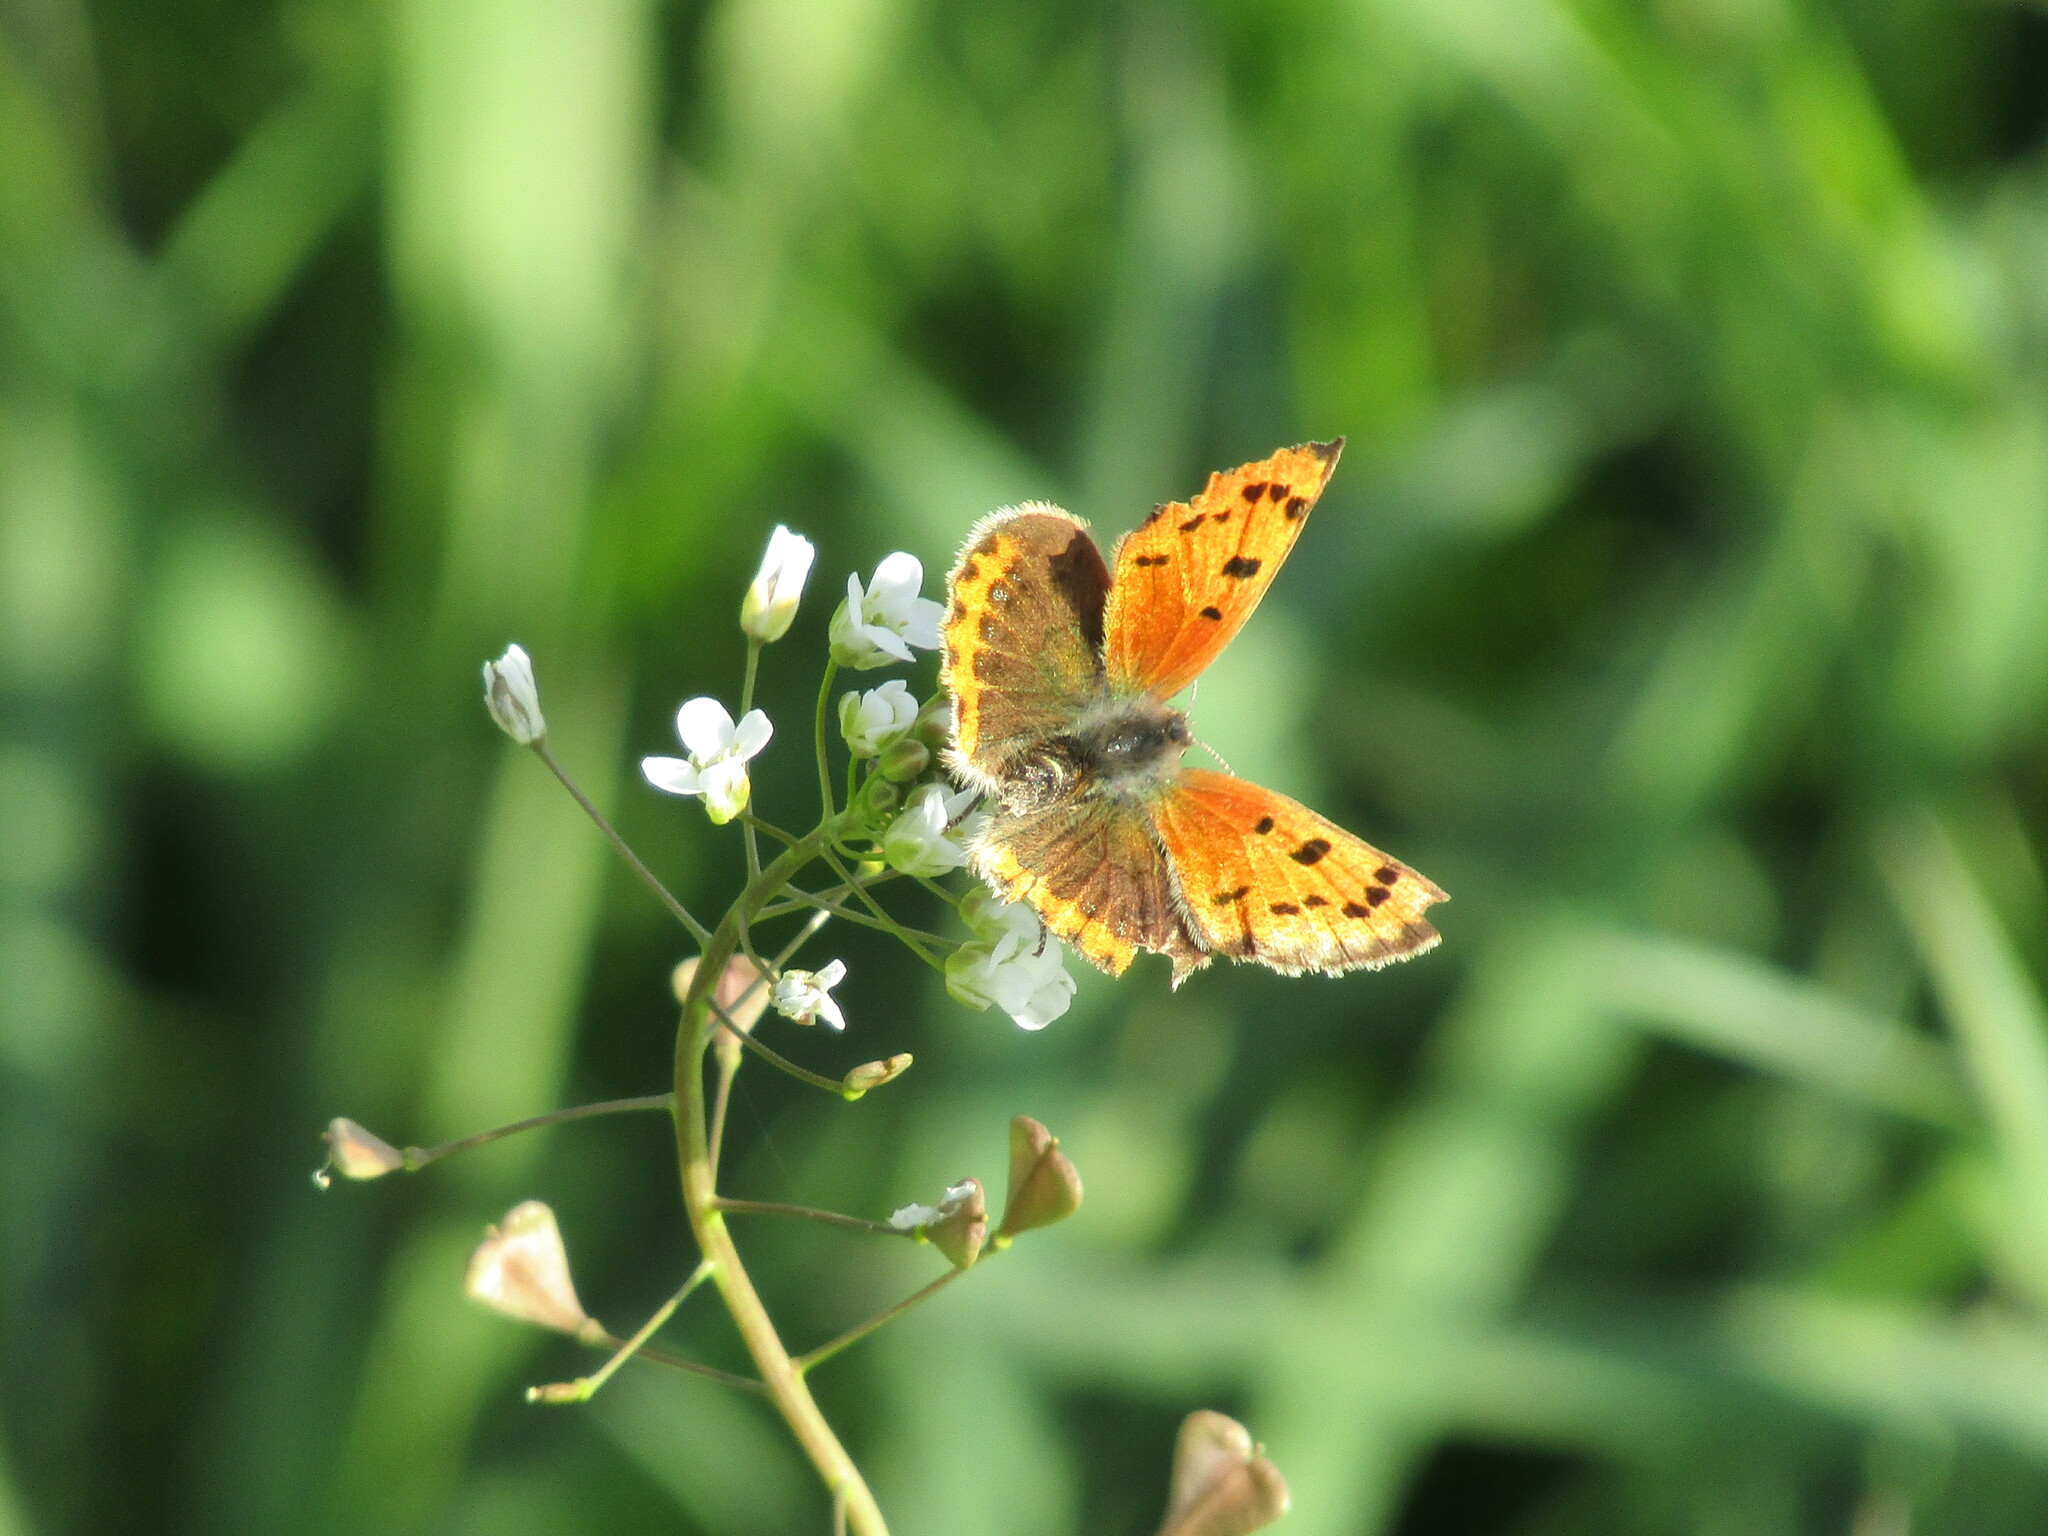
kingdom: Animalia
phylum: Arthropoda
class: Insecta
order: Lepidoptera
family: Lycaenidae
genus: Lycaena
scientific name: Lycaena phlaeas
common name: Small copper
